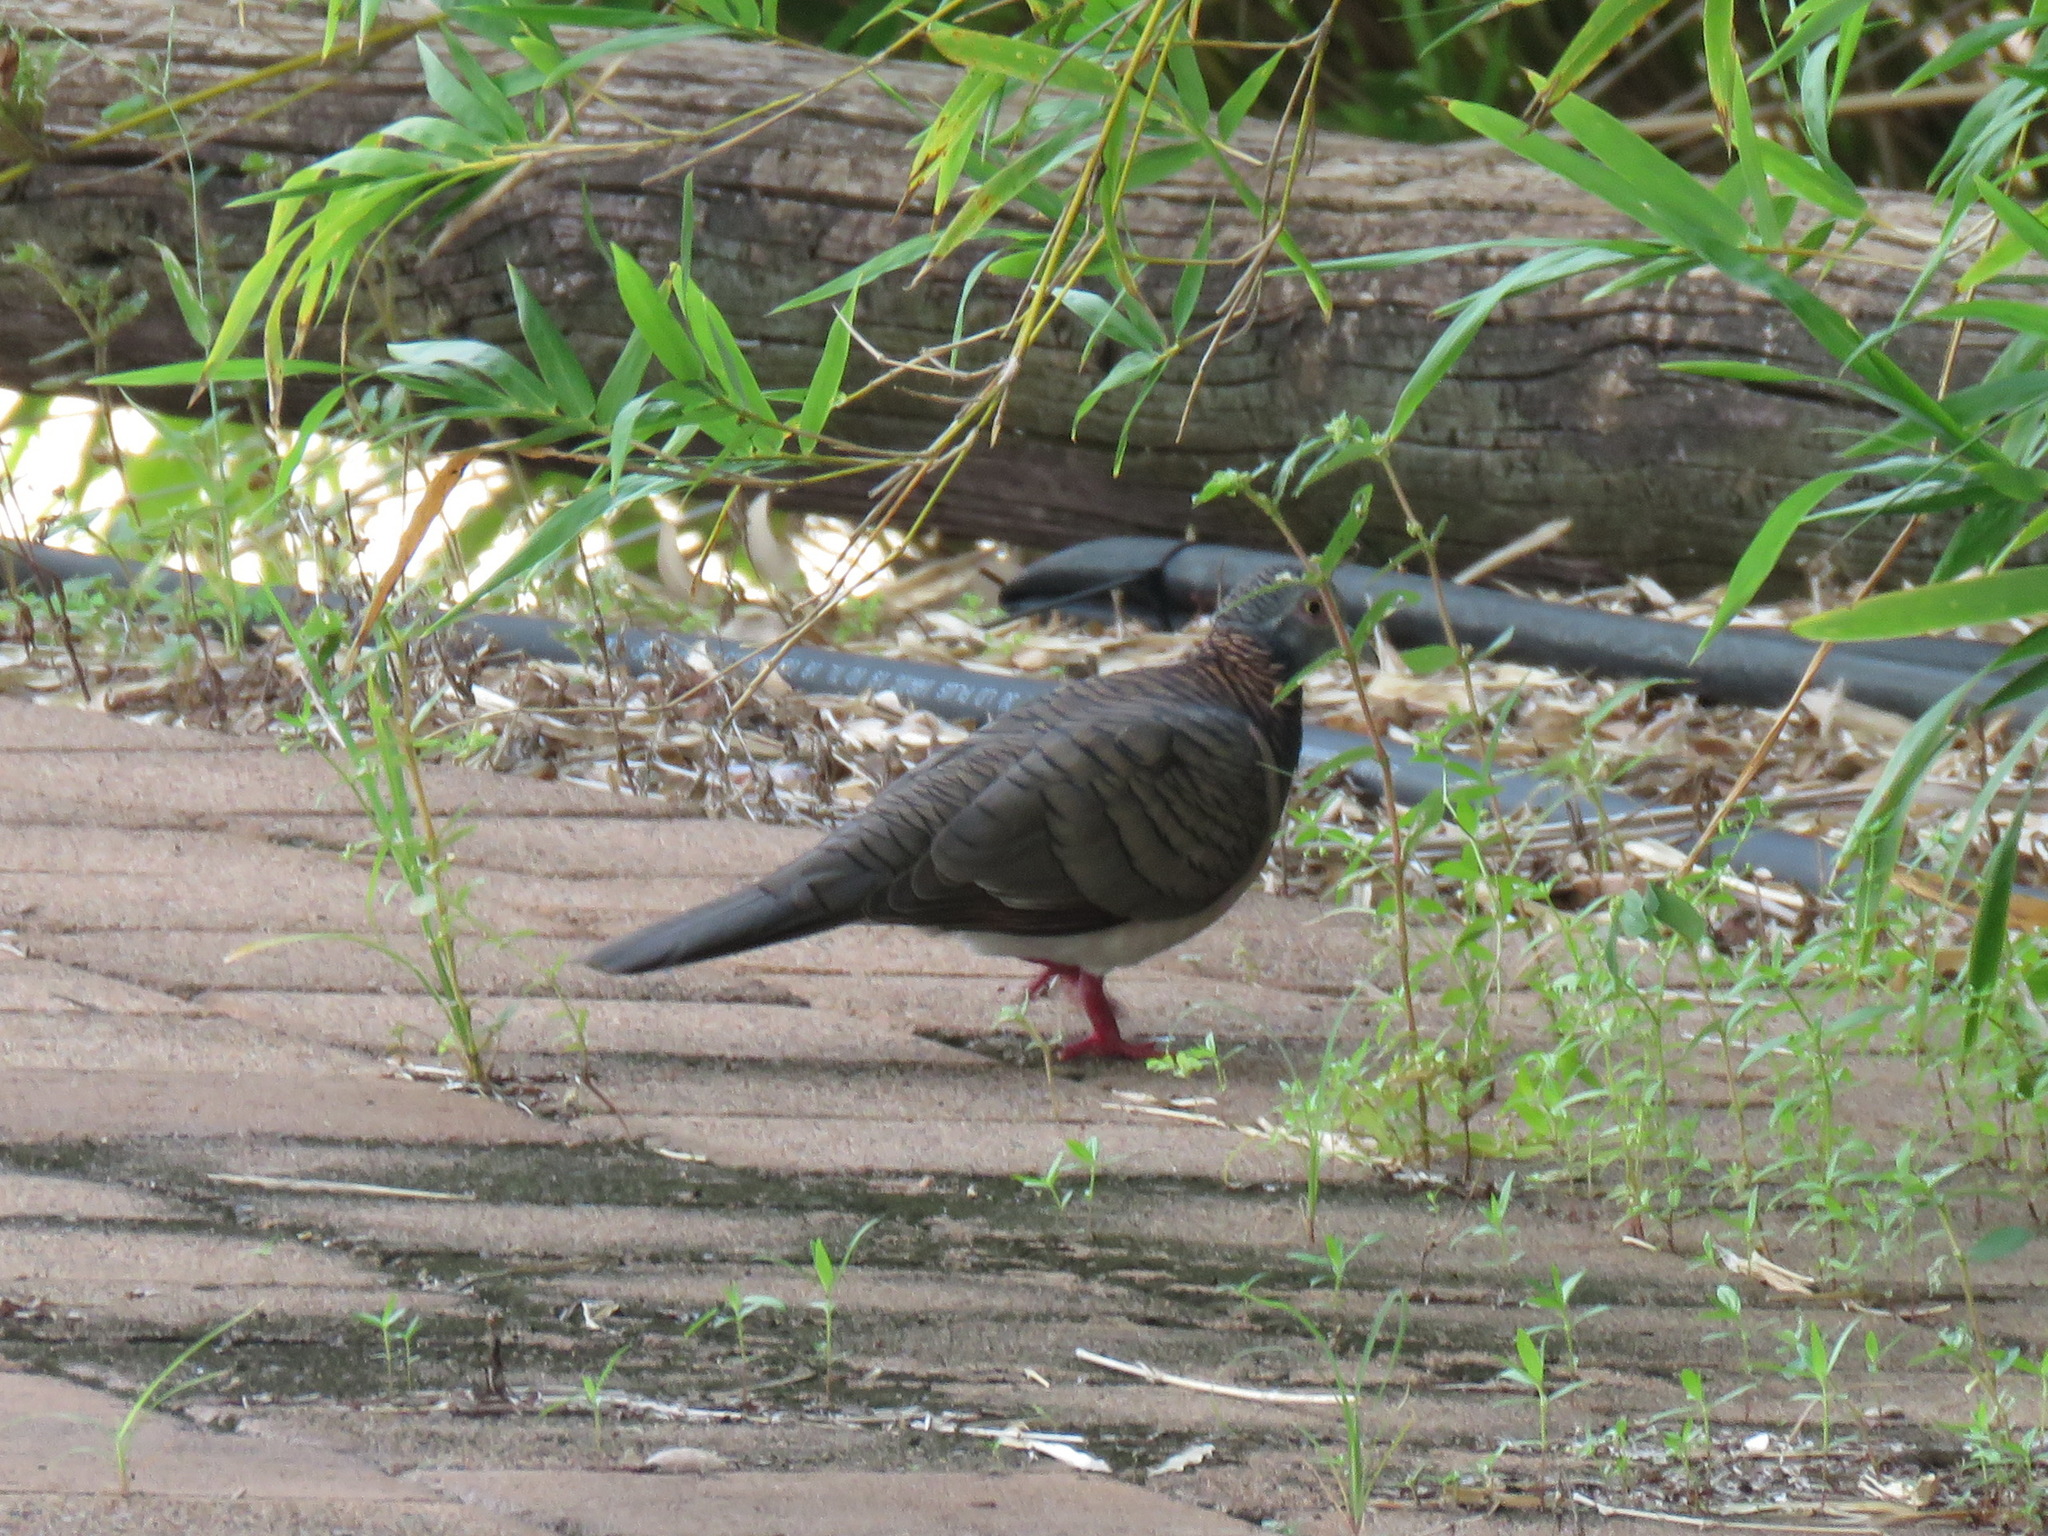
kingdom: Animalia
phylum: Chordata
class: Aves
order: Columbiformes
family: Columbidae
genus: Geopelia
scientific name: Geopelia humeralis
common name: Bar-shouldered dove
